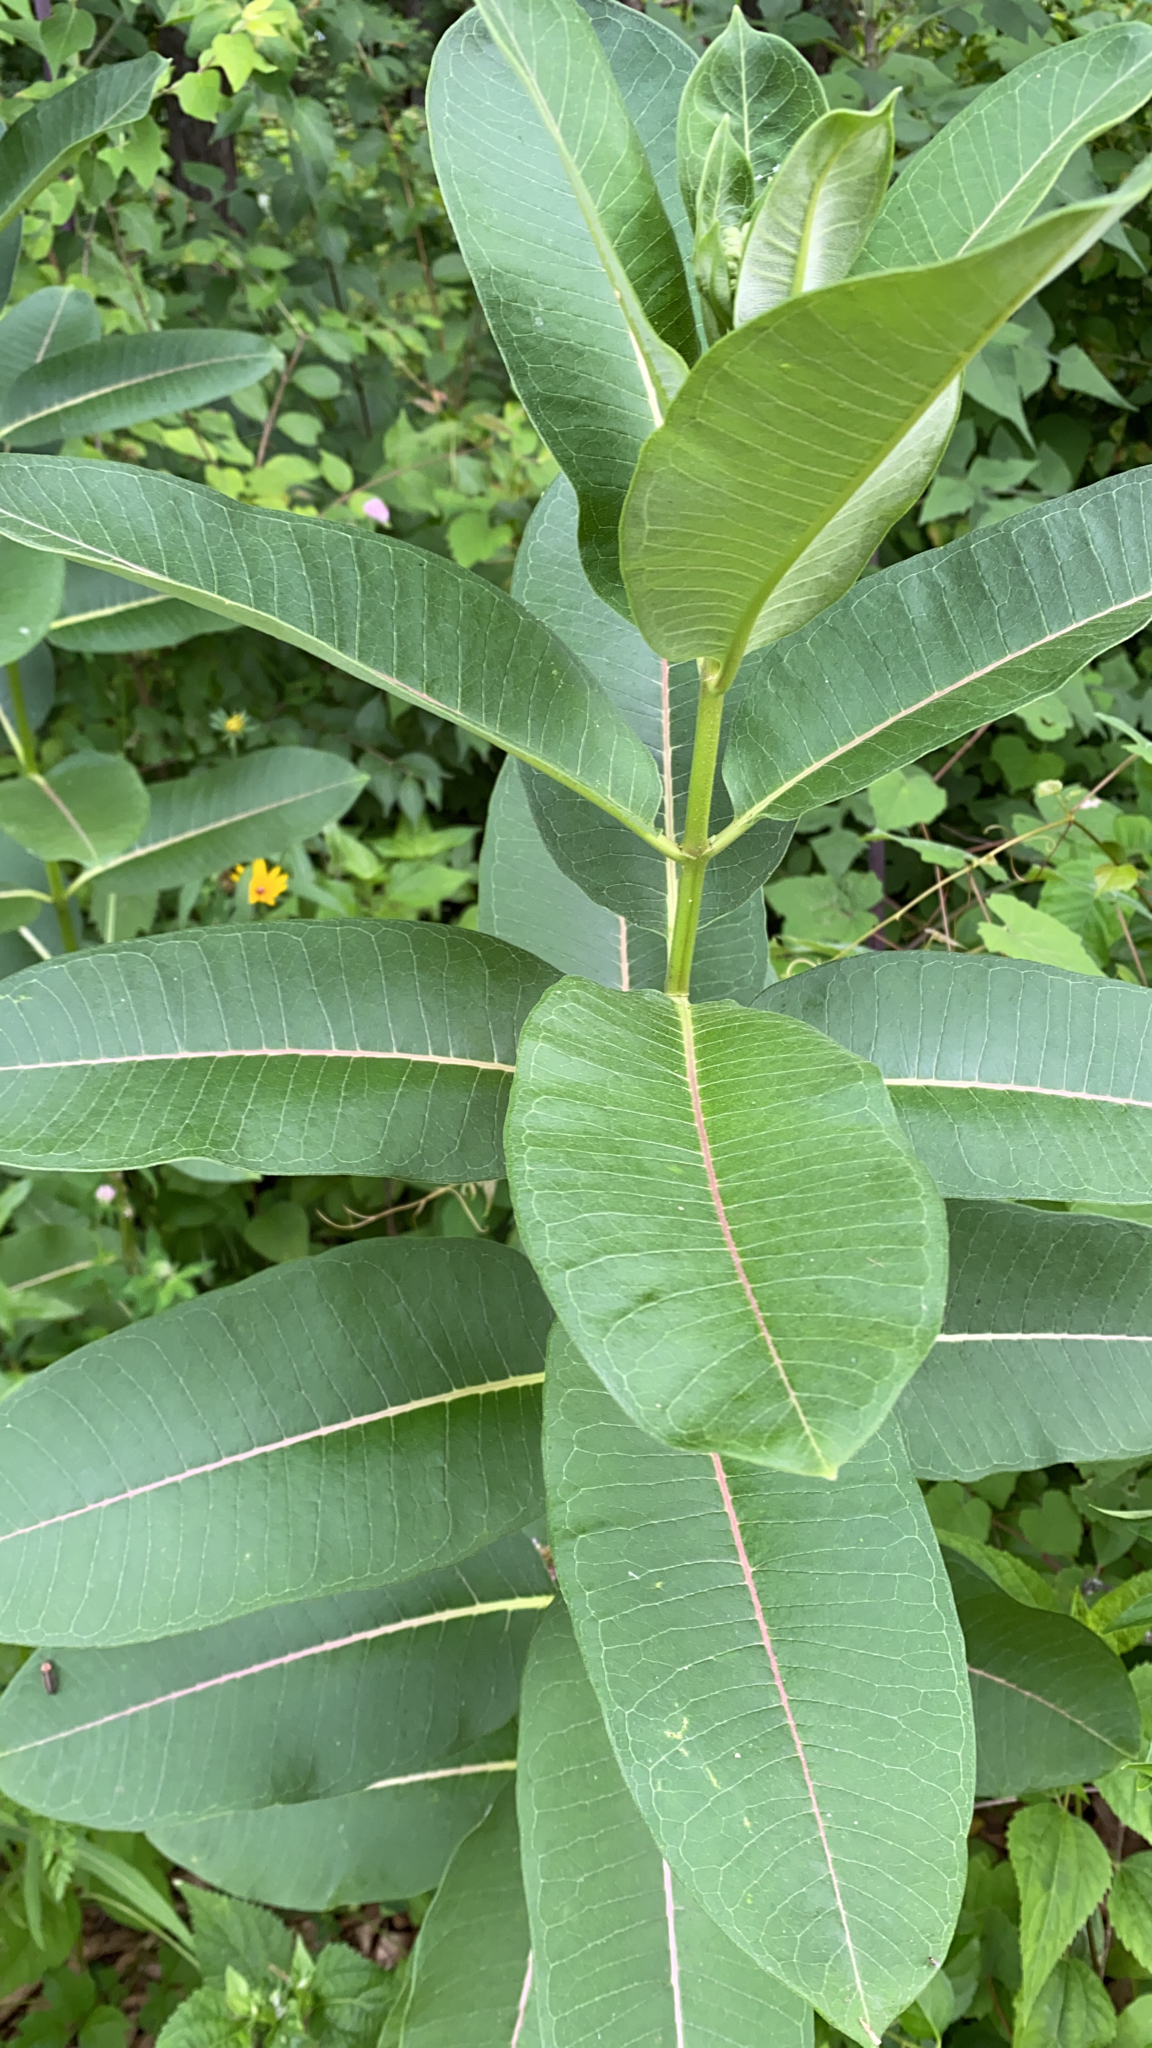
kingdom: Plantae
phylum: Tracheophyta
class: Magnoliopsida
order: Gentianales
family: Apocynaceae
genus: Asclepias
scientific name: Asclepias syriaca
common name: Common milkweed
